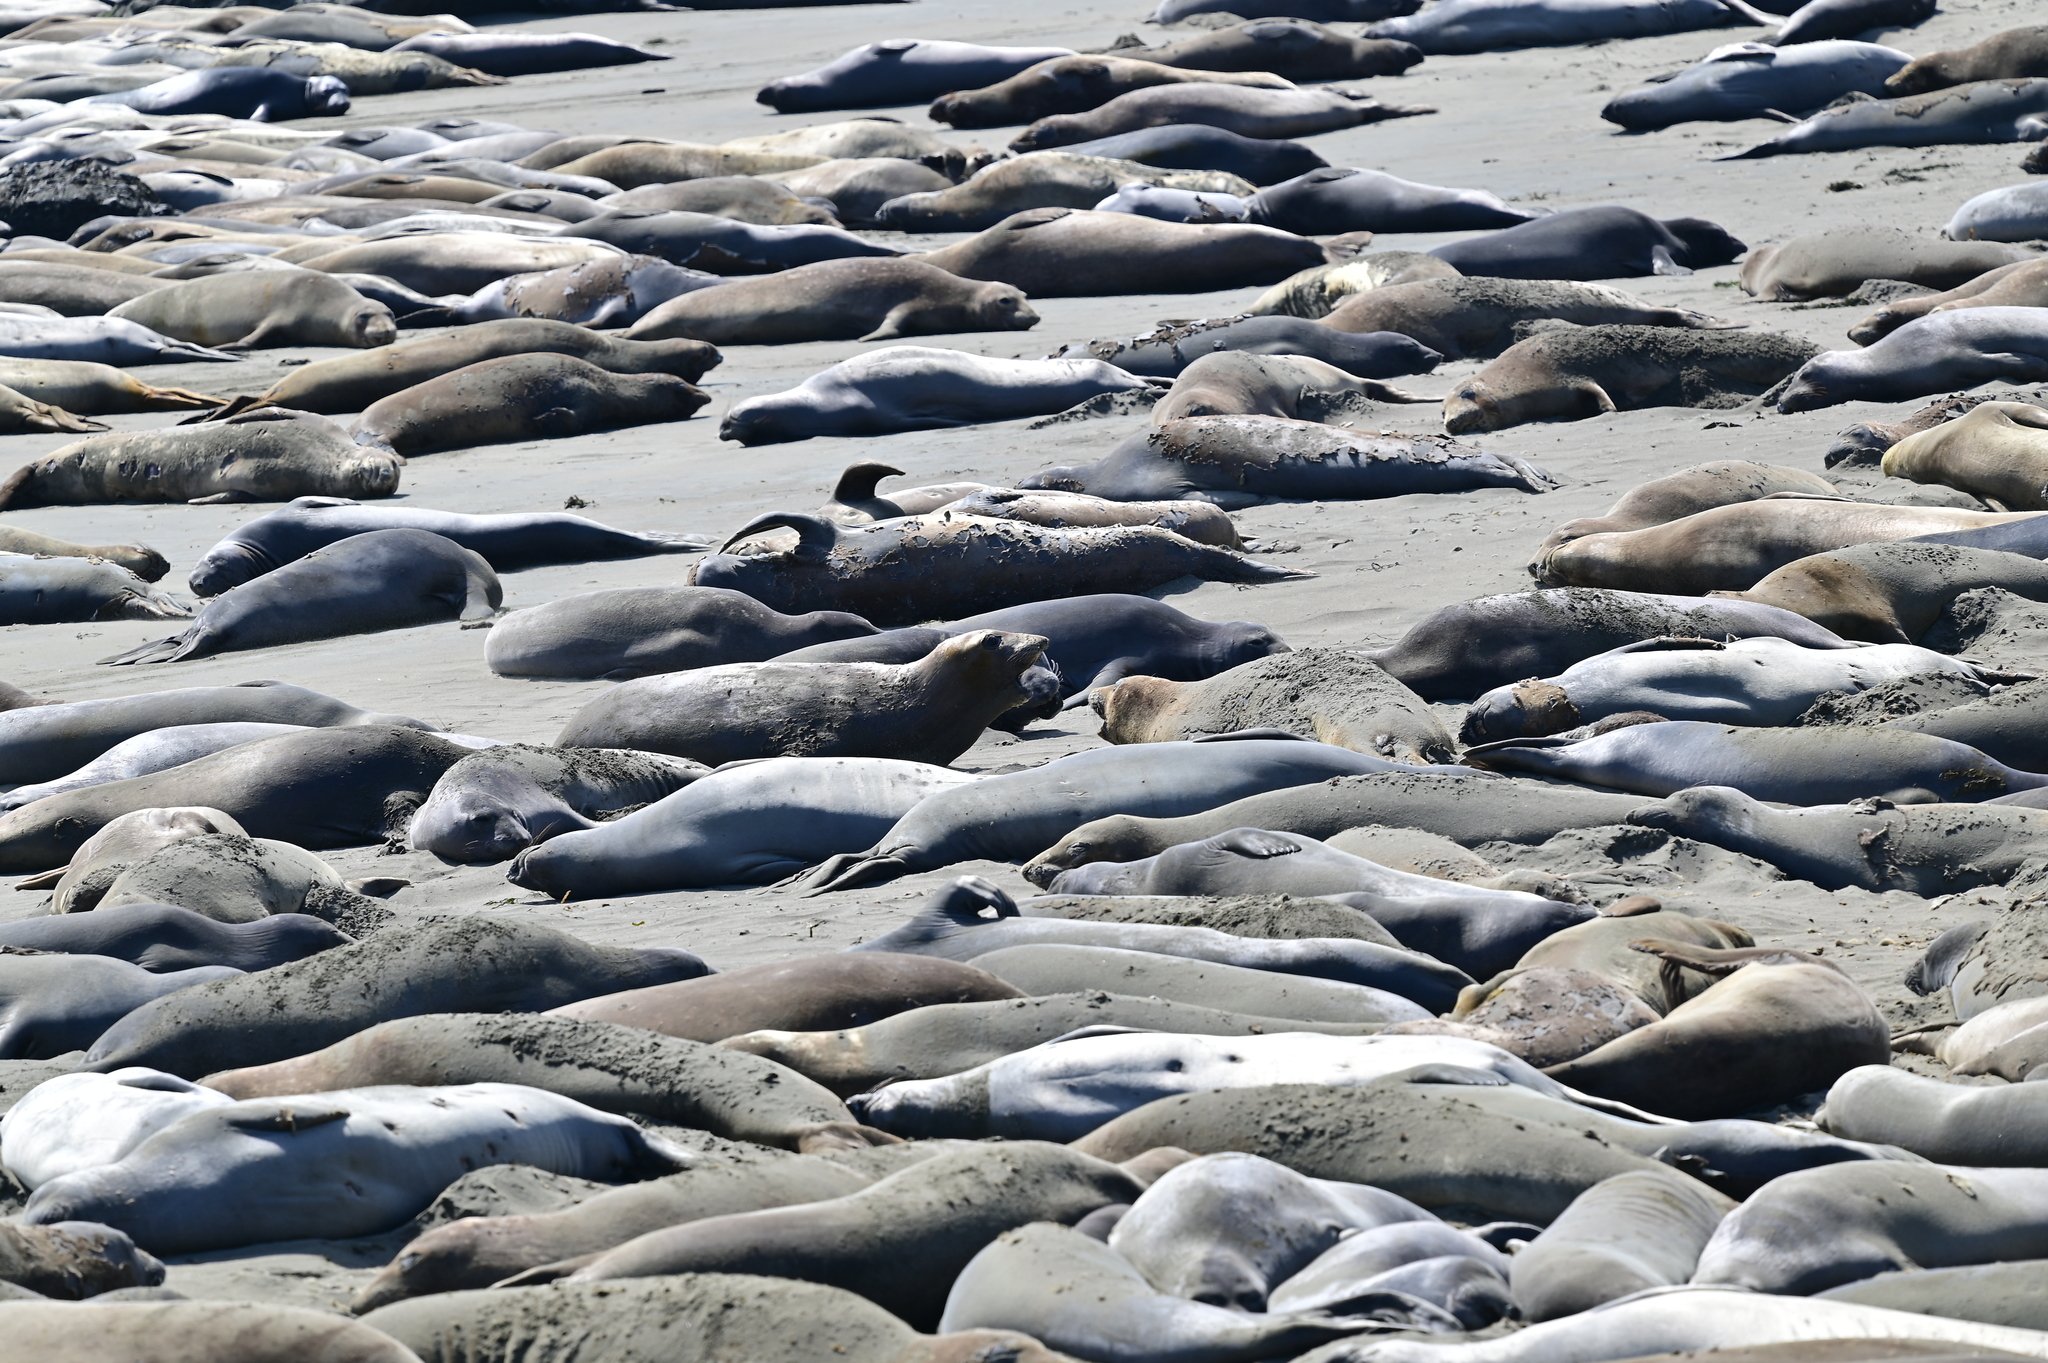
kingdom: Animalia
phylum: Chordata
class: Mammalia
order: Carnivora
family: Phocidae
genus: Mirounga
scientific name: Mirounga angustirostris
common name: Northern elephant seal
